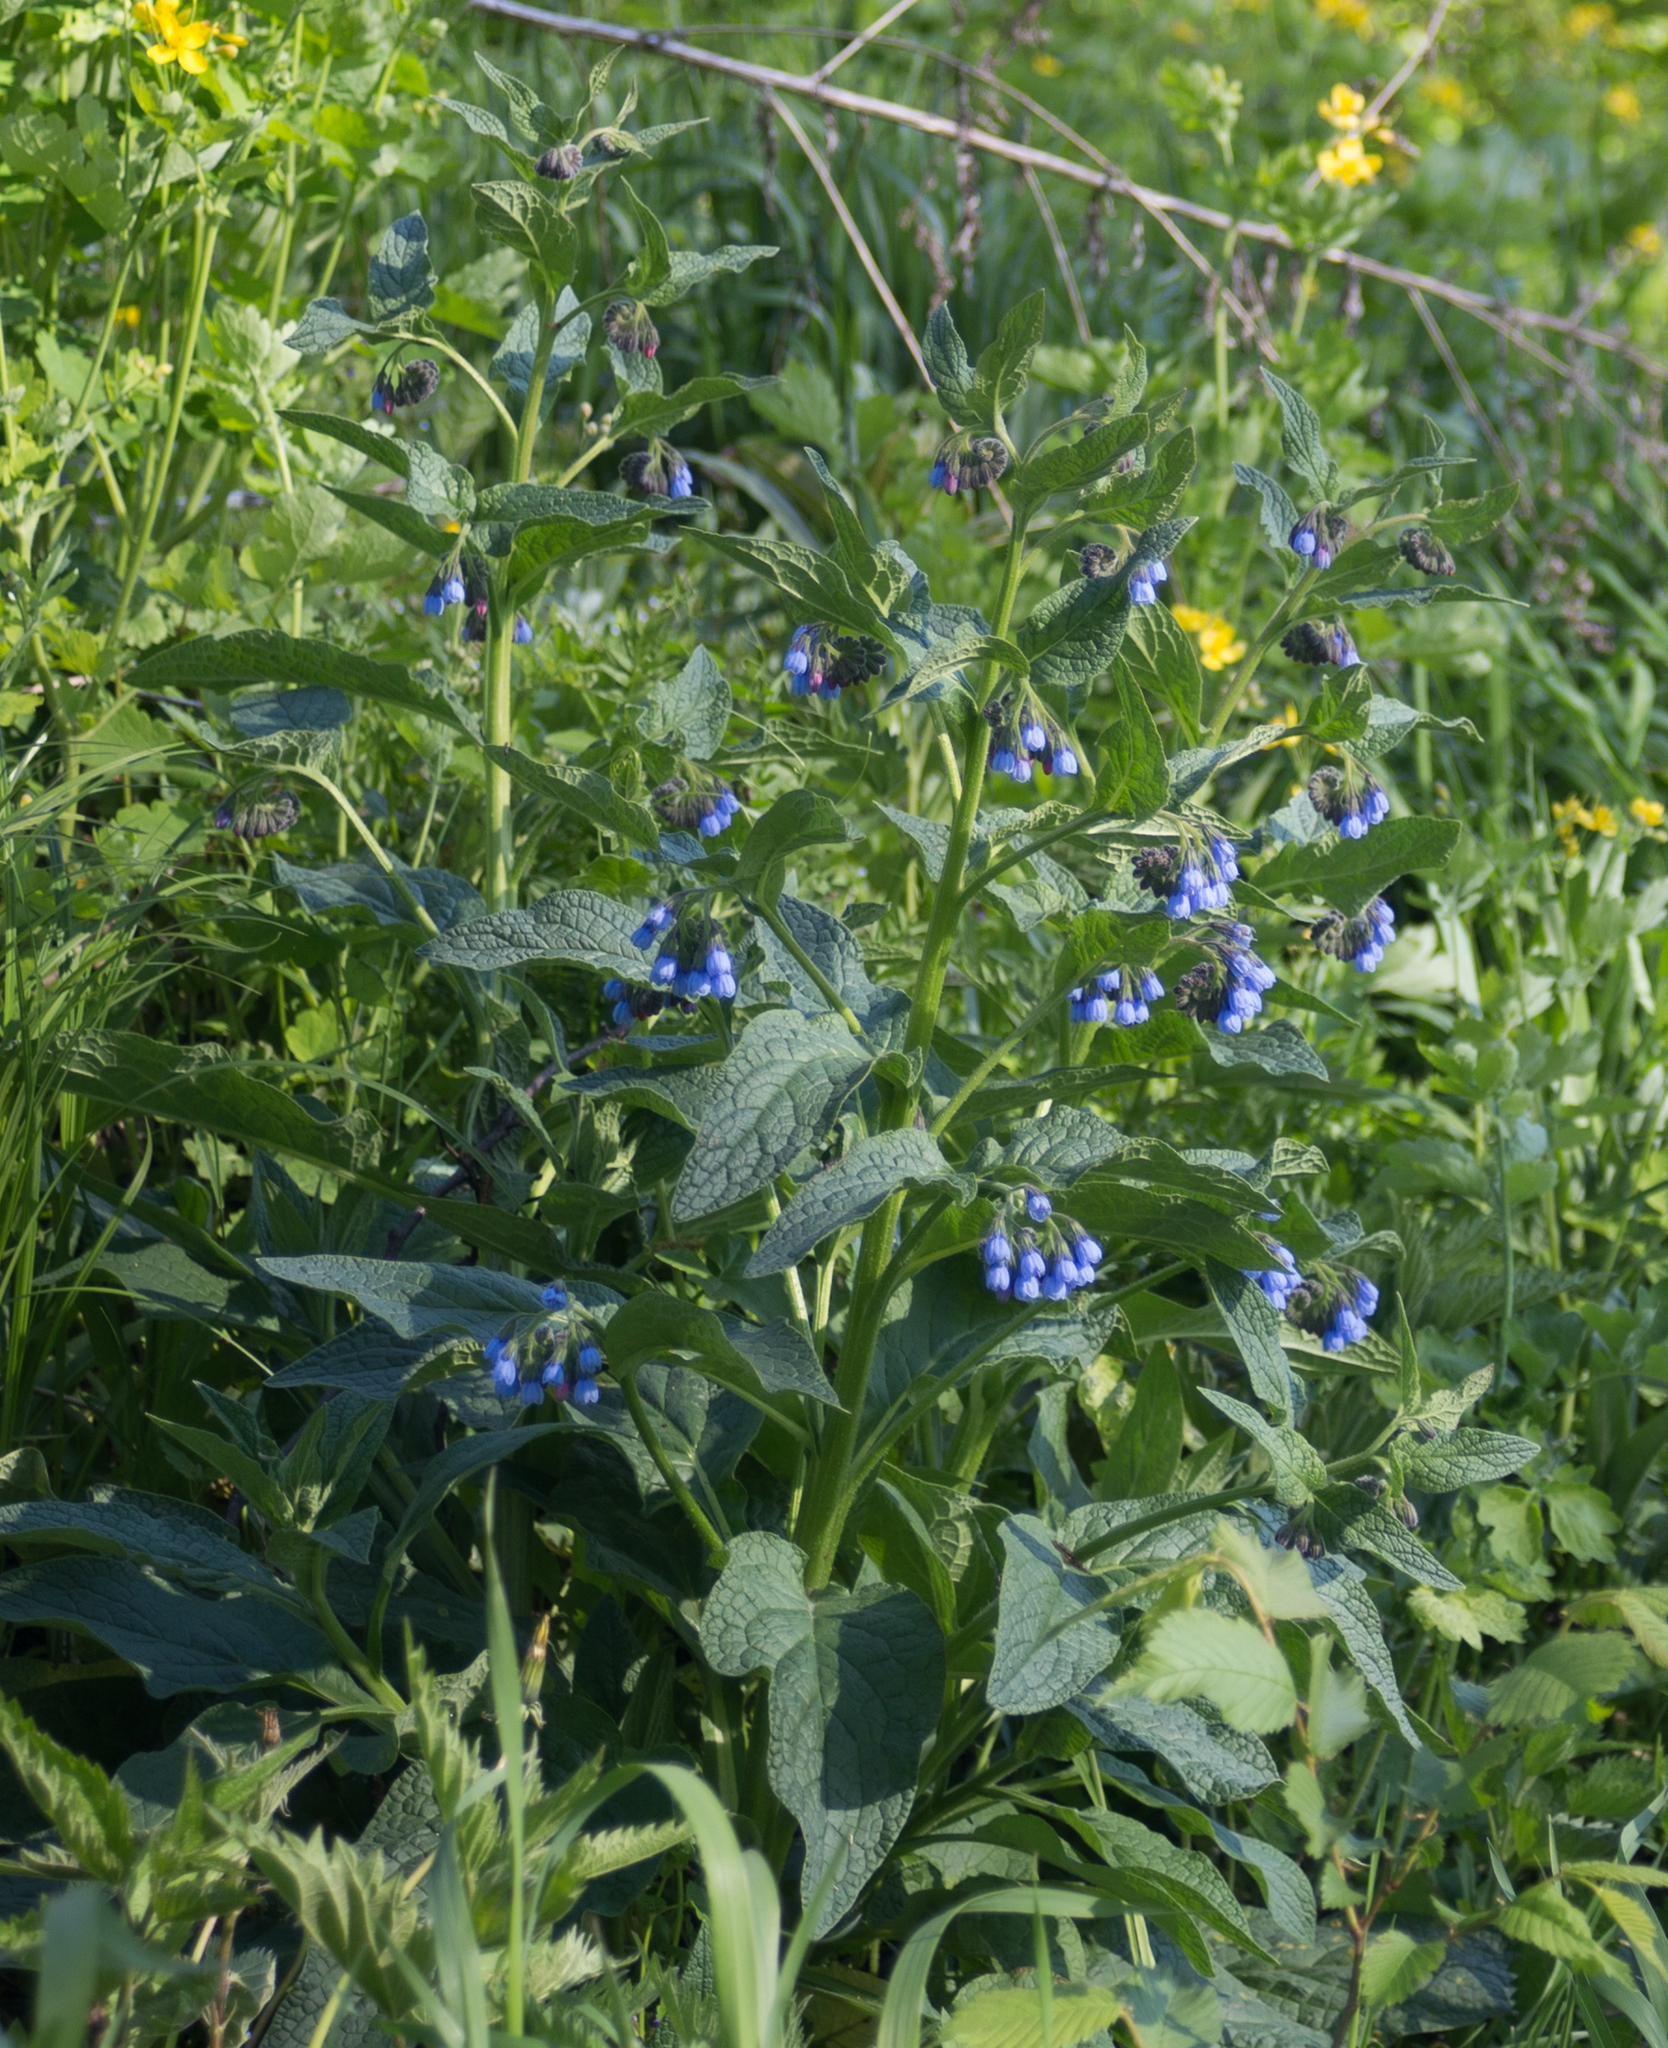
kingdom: Plantae
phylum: Tracheophyta
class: Magnoliopsida
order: Boraginales
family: Boraginaceae
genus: Symphytum
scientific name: Symphytum caucasicum
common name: Caucasian comfrey
